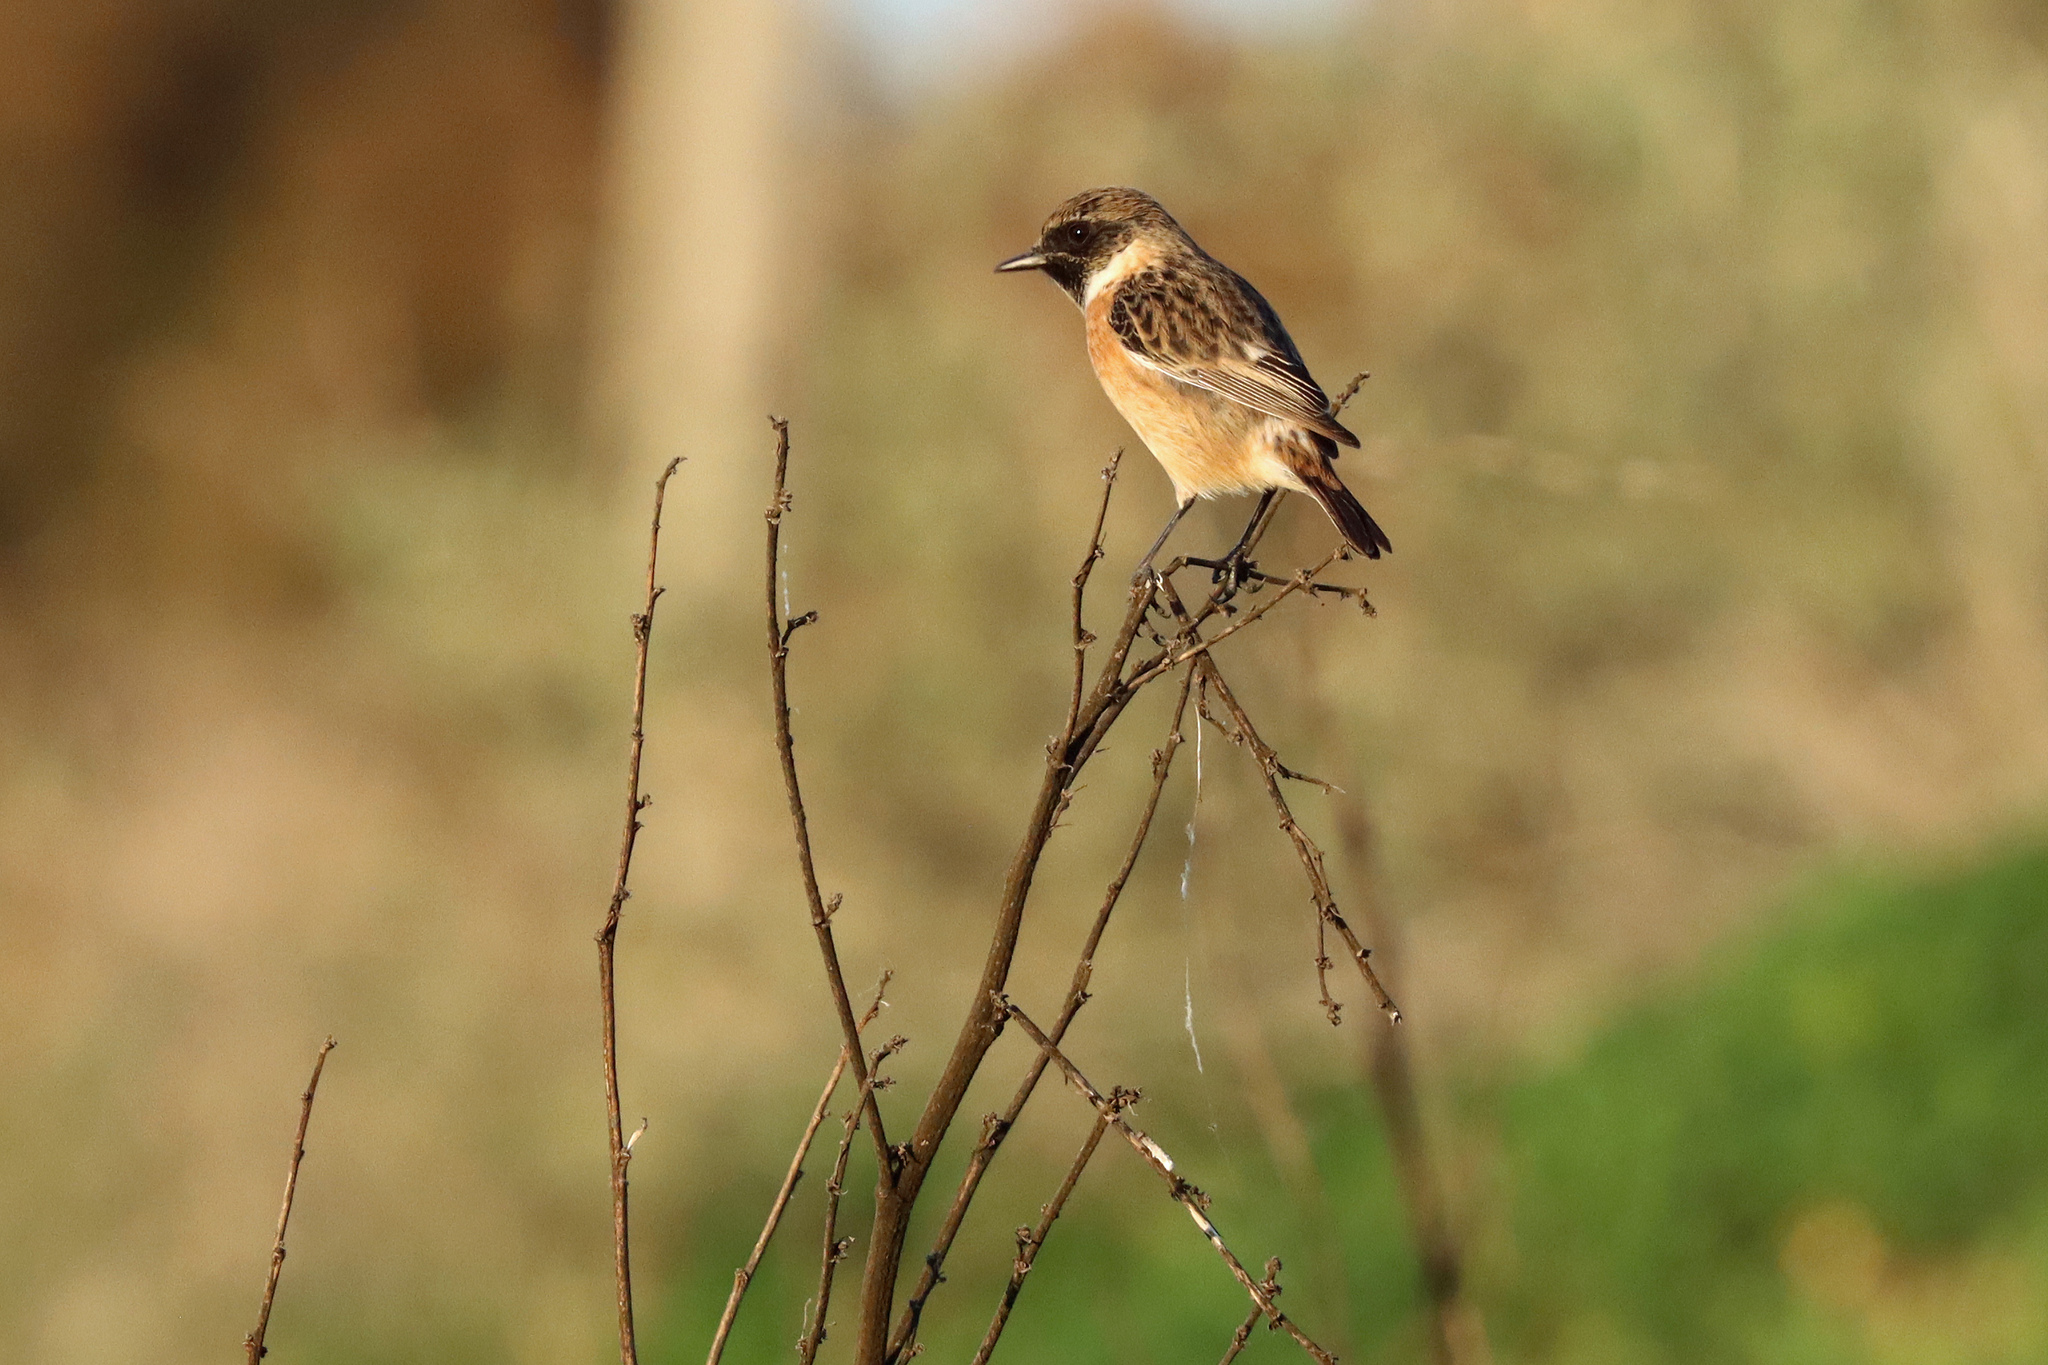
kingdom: Animalia
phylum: Chordata
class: Aves
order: Passeriformes
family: Muscicapidae
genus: Saxicola
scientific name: Saxicola rubicola
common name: European stonechat
